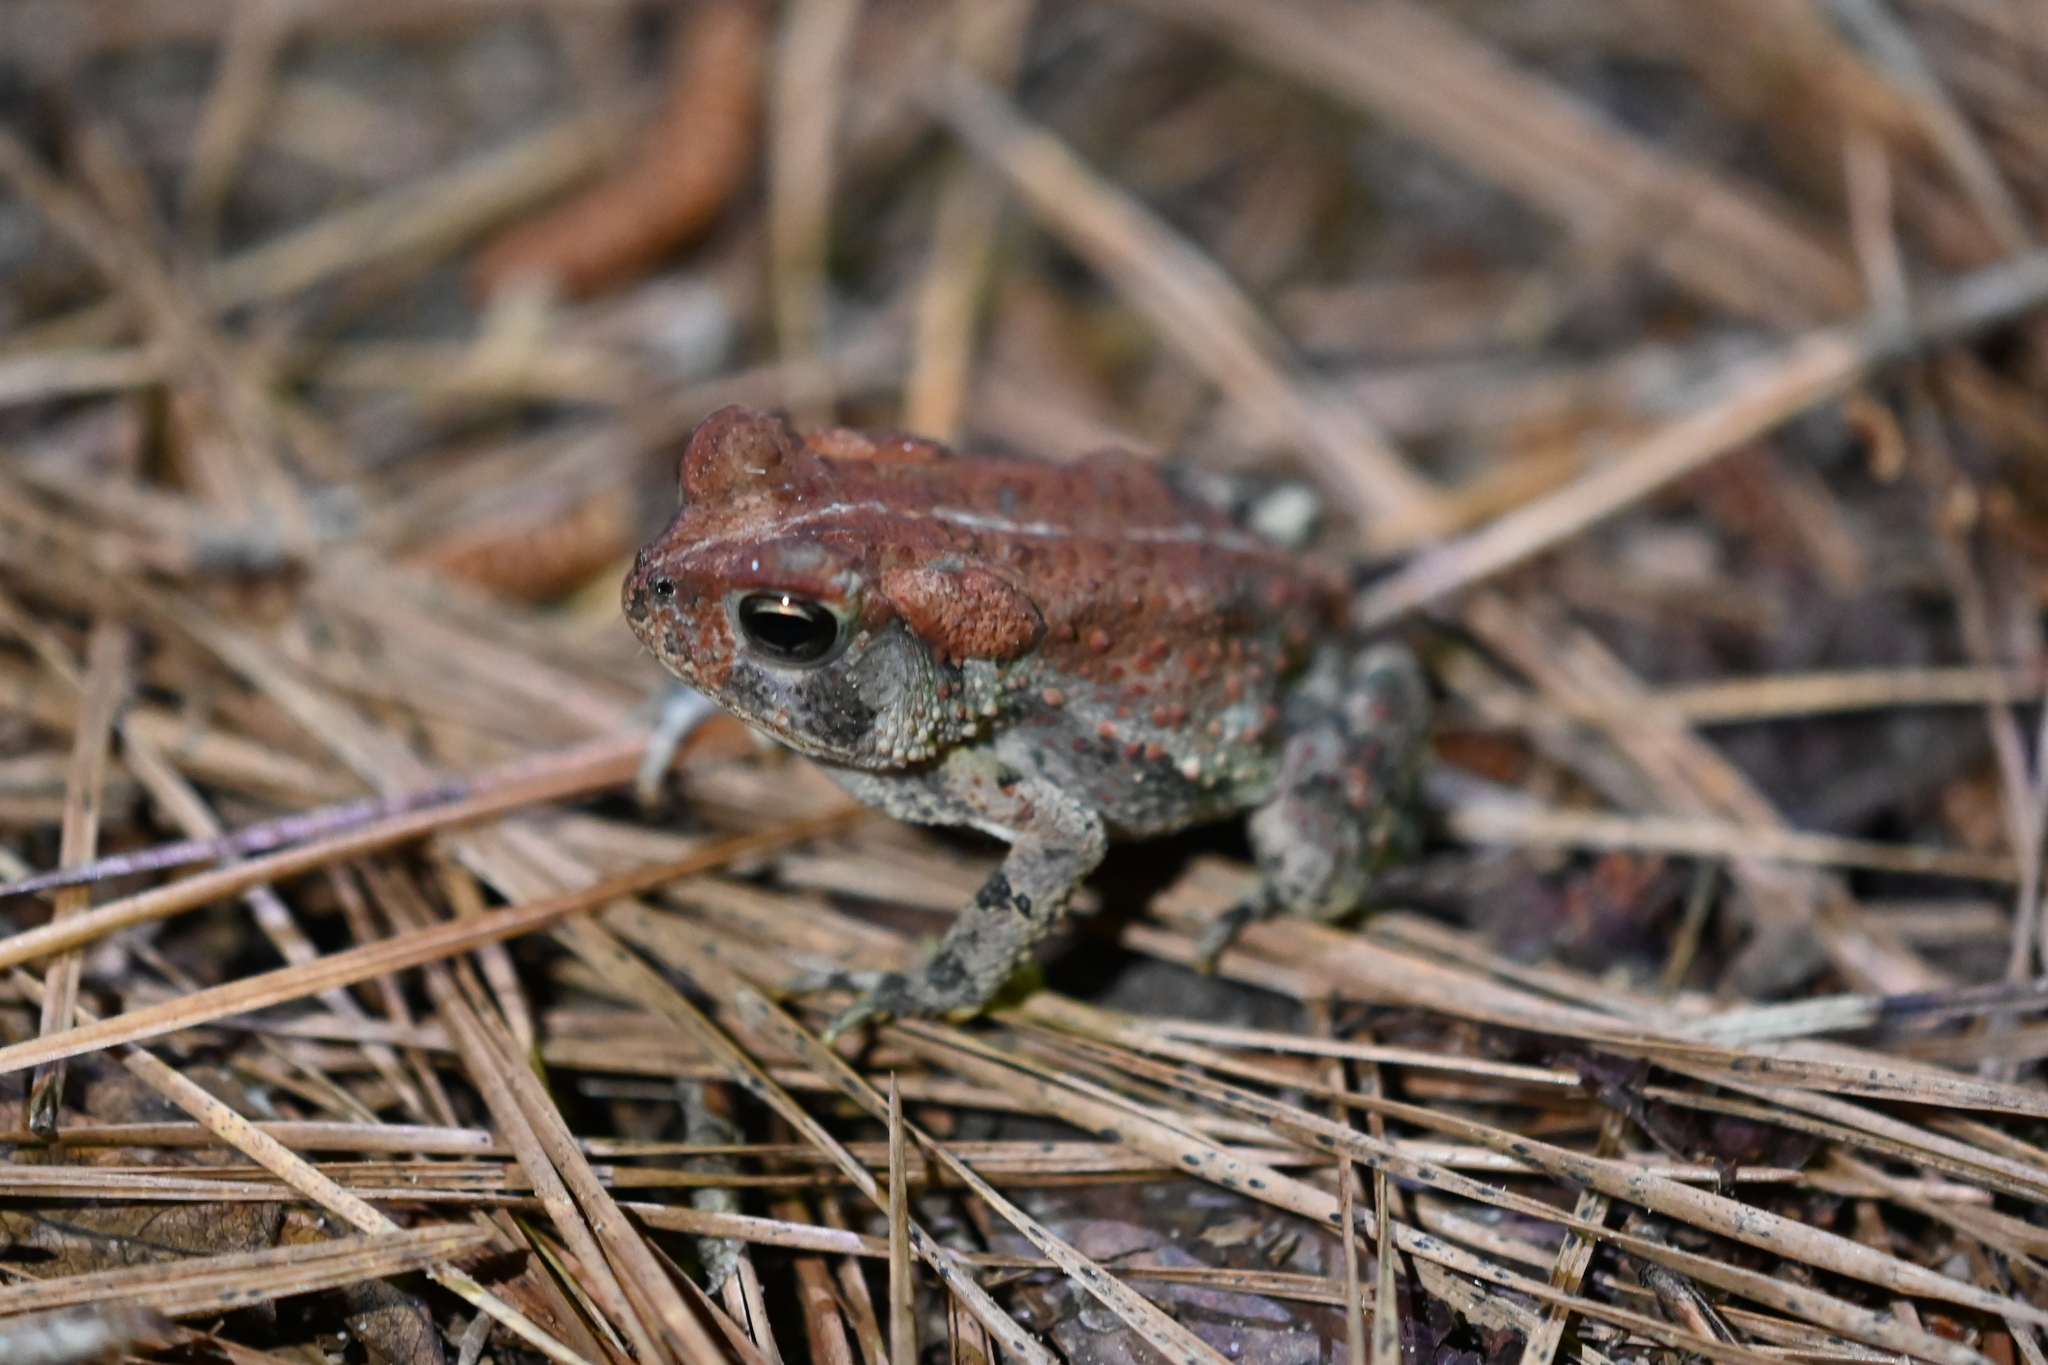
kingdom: Animalia
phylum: Chordata
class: Amphibia
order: Anura
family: Bufonidae
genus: Anaxyrus
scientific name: Anaxyrus fowleri
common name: Fowler's toad
